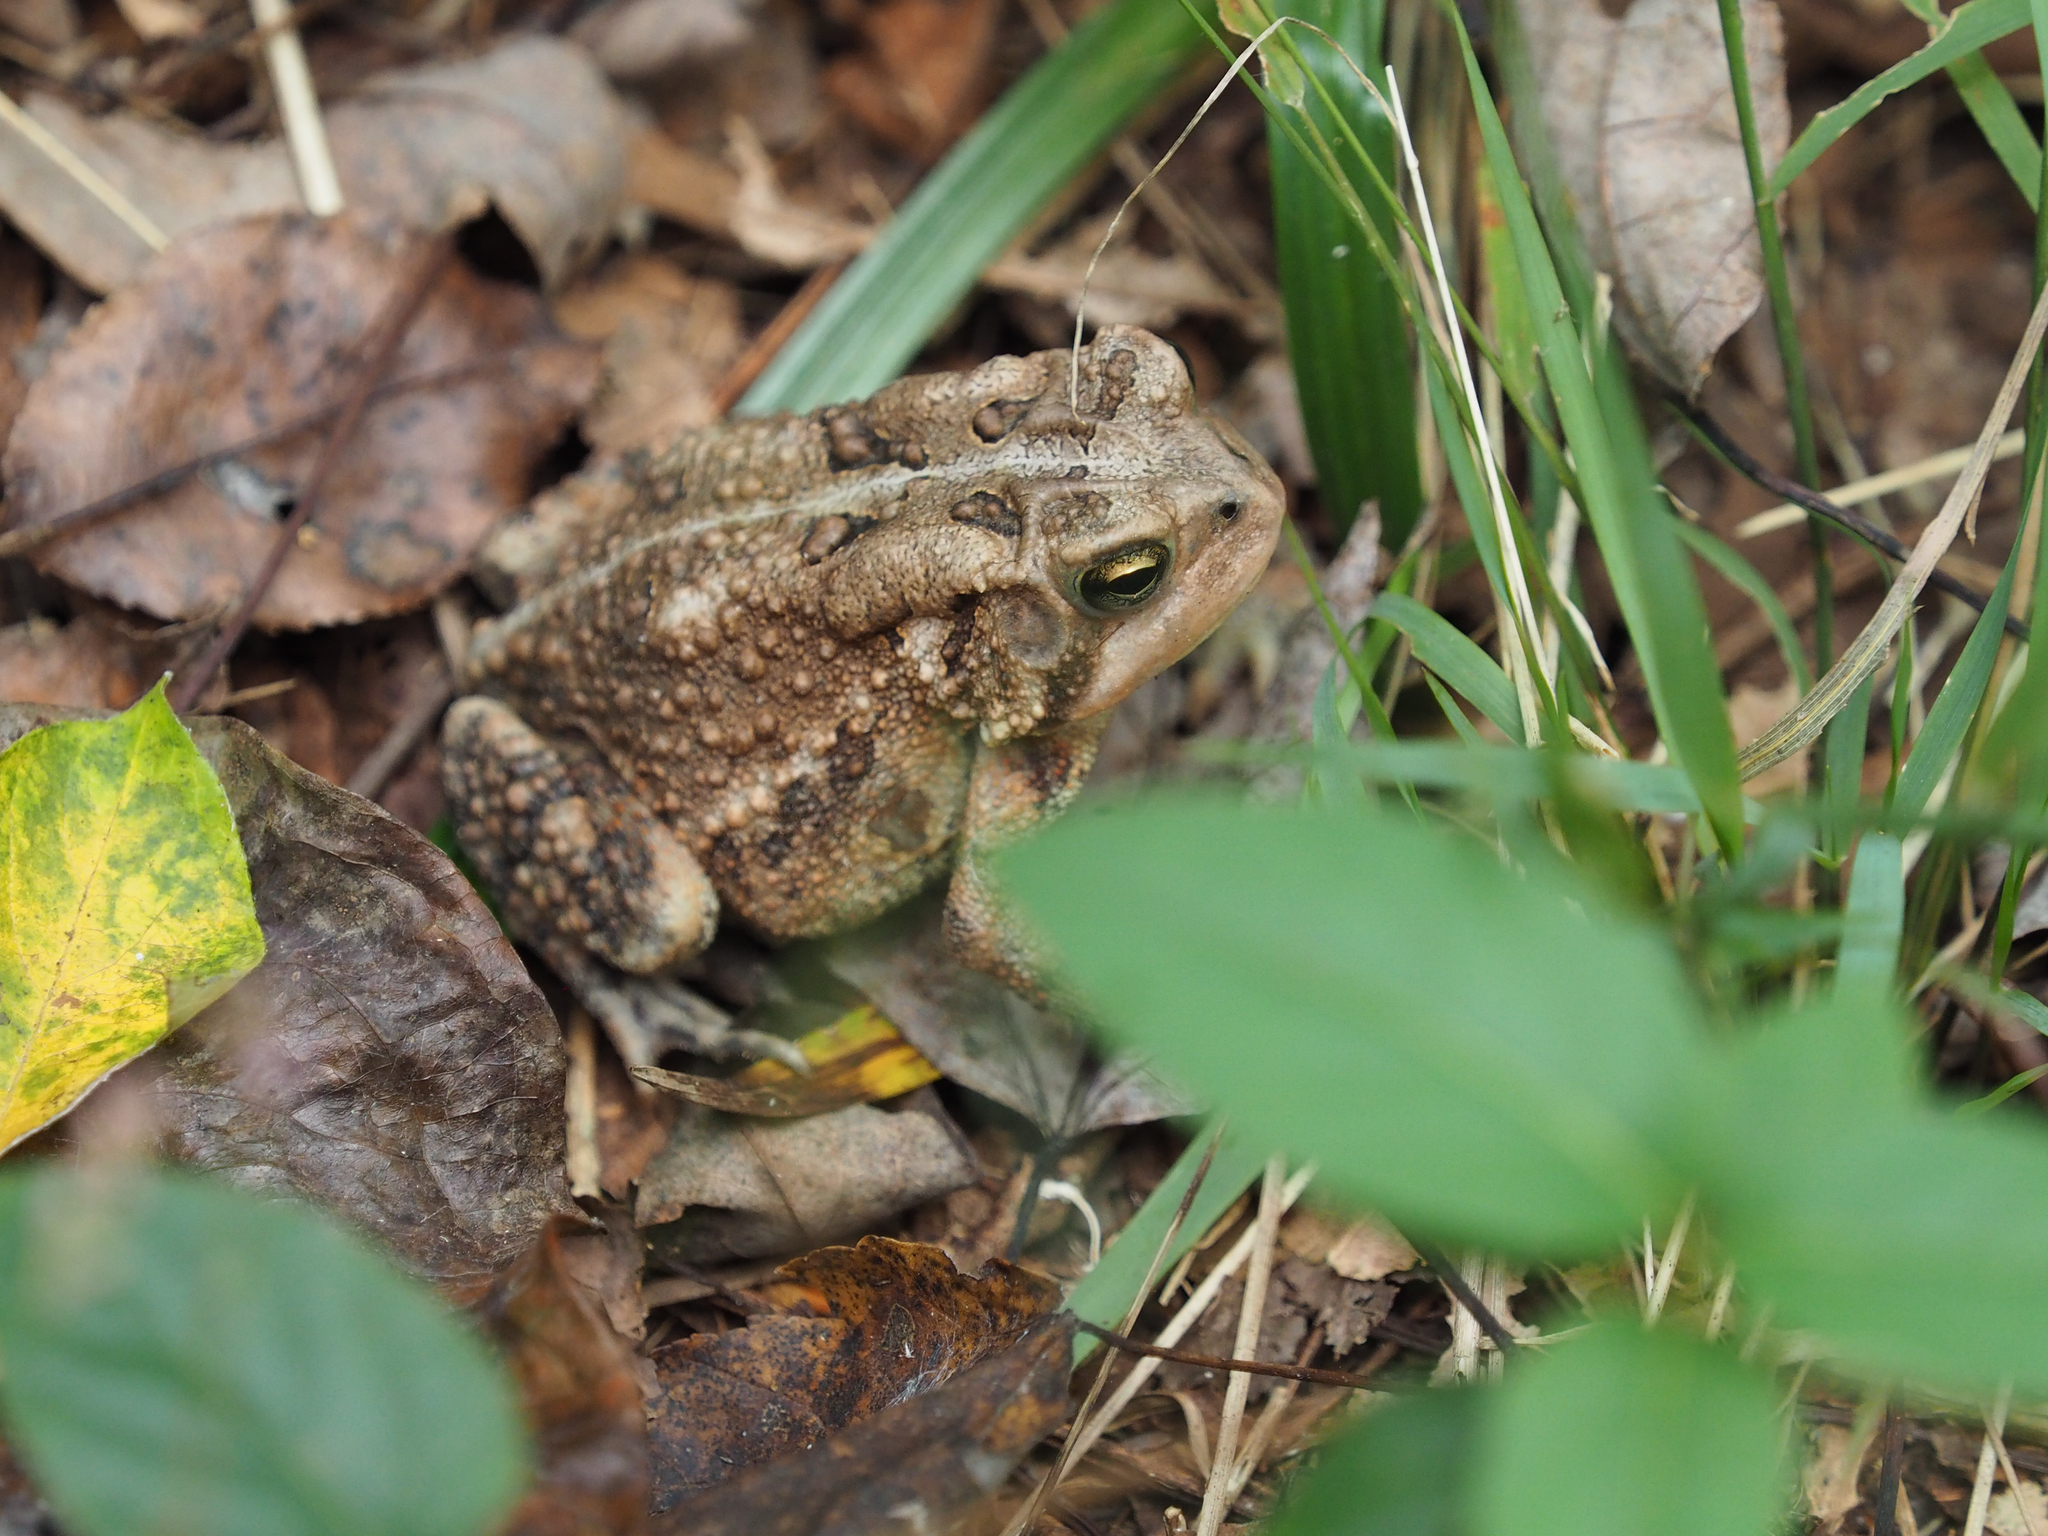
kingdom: Animalia
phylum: Chordata
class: Amphibia
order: Anura
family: Bufonidae
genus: Anaxyrus
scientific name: Anaxyrus americanus
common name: American toad
